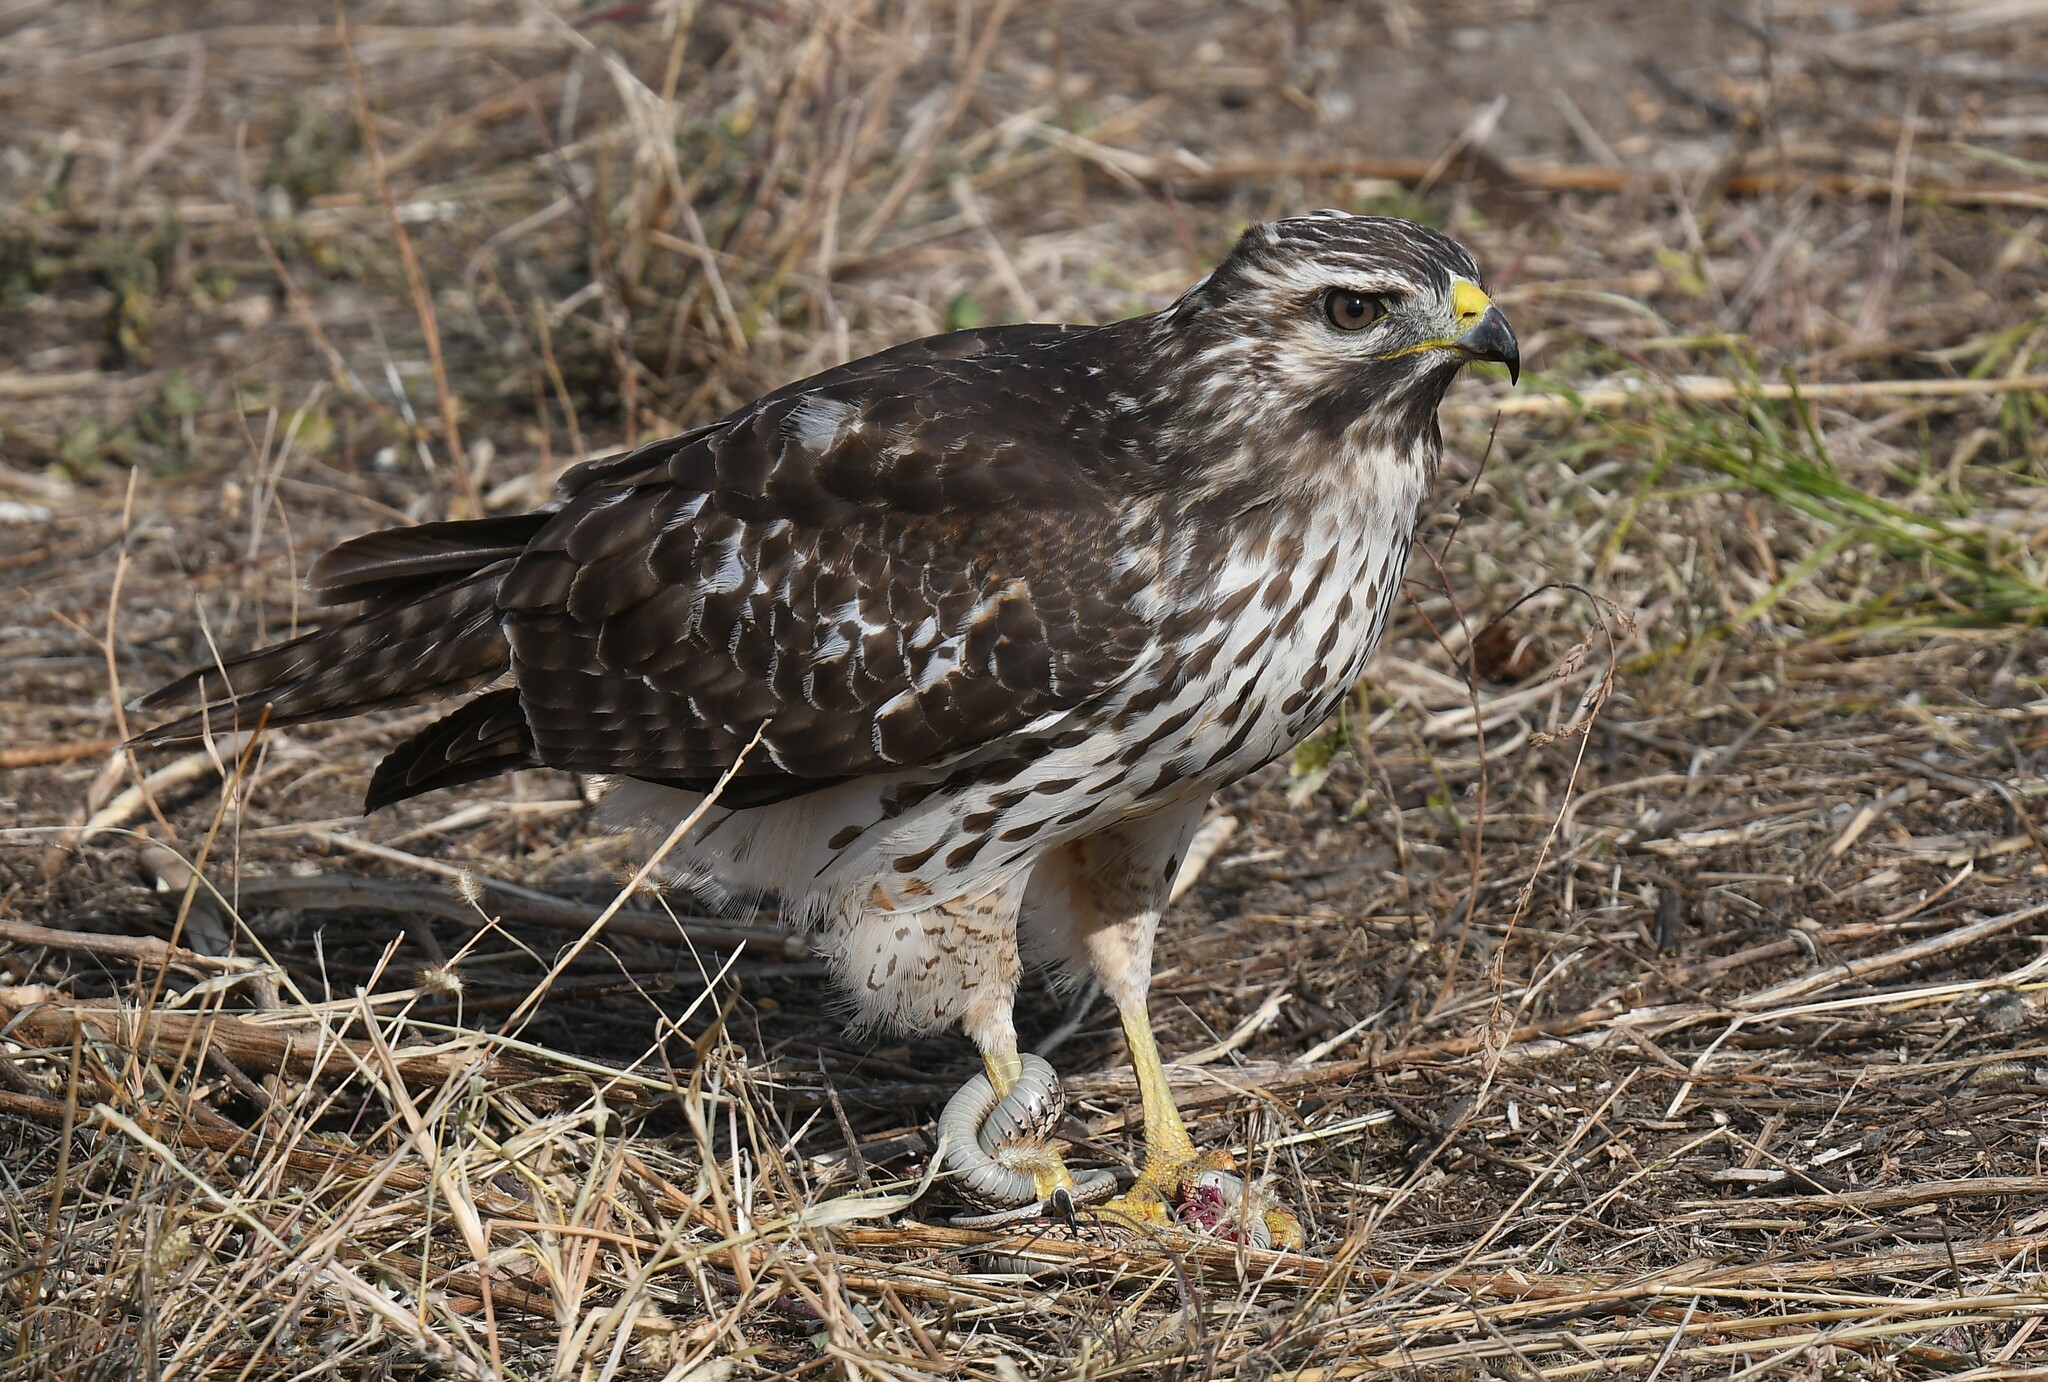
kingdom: Animalia
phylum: Chordata
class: Aves
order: Accipitriformes
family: Accipitridae
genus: Buteo
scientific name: Buteo lineatus
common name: Red-shouldered hawk
